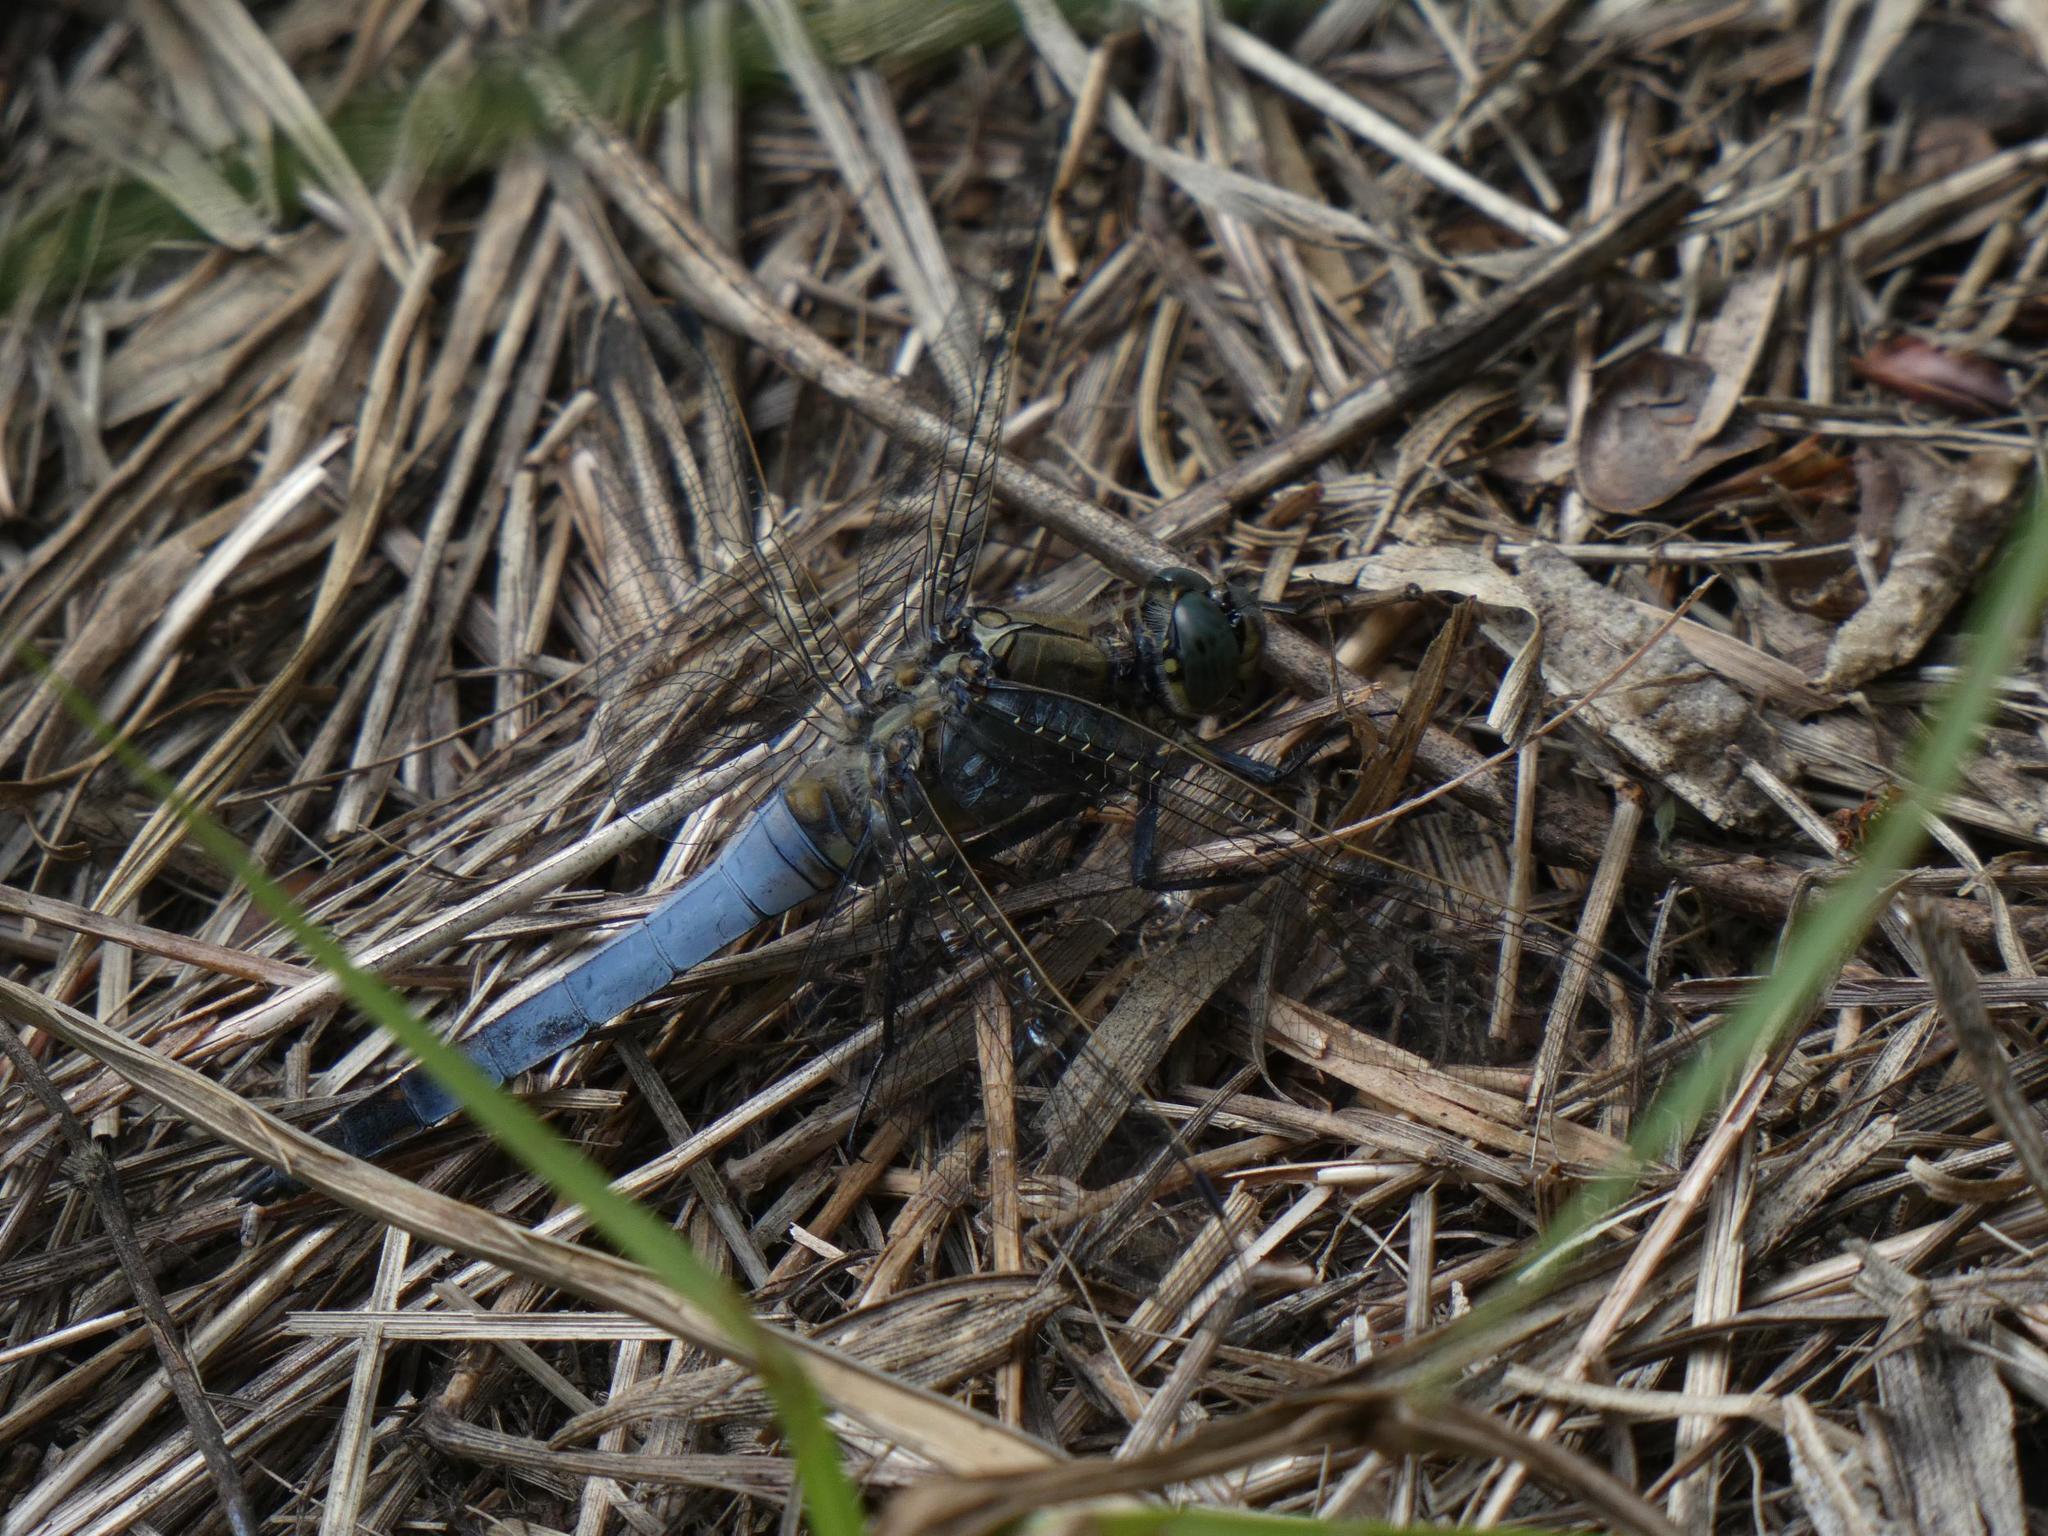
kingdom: Animalia
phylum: Arthropoda
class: Insecta
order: Odonata
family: Libellulidae
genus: Orthetrum
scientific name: Orthetrum cancellatum
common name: Black-tailed skimmer
